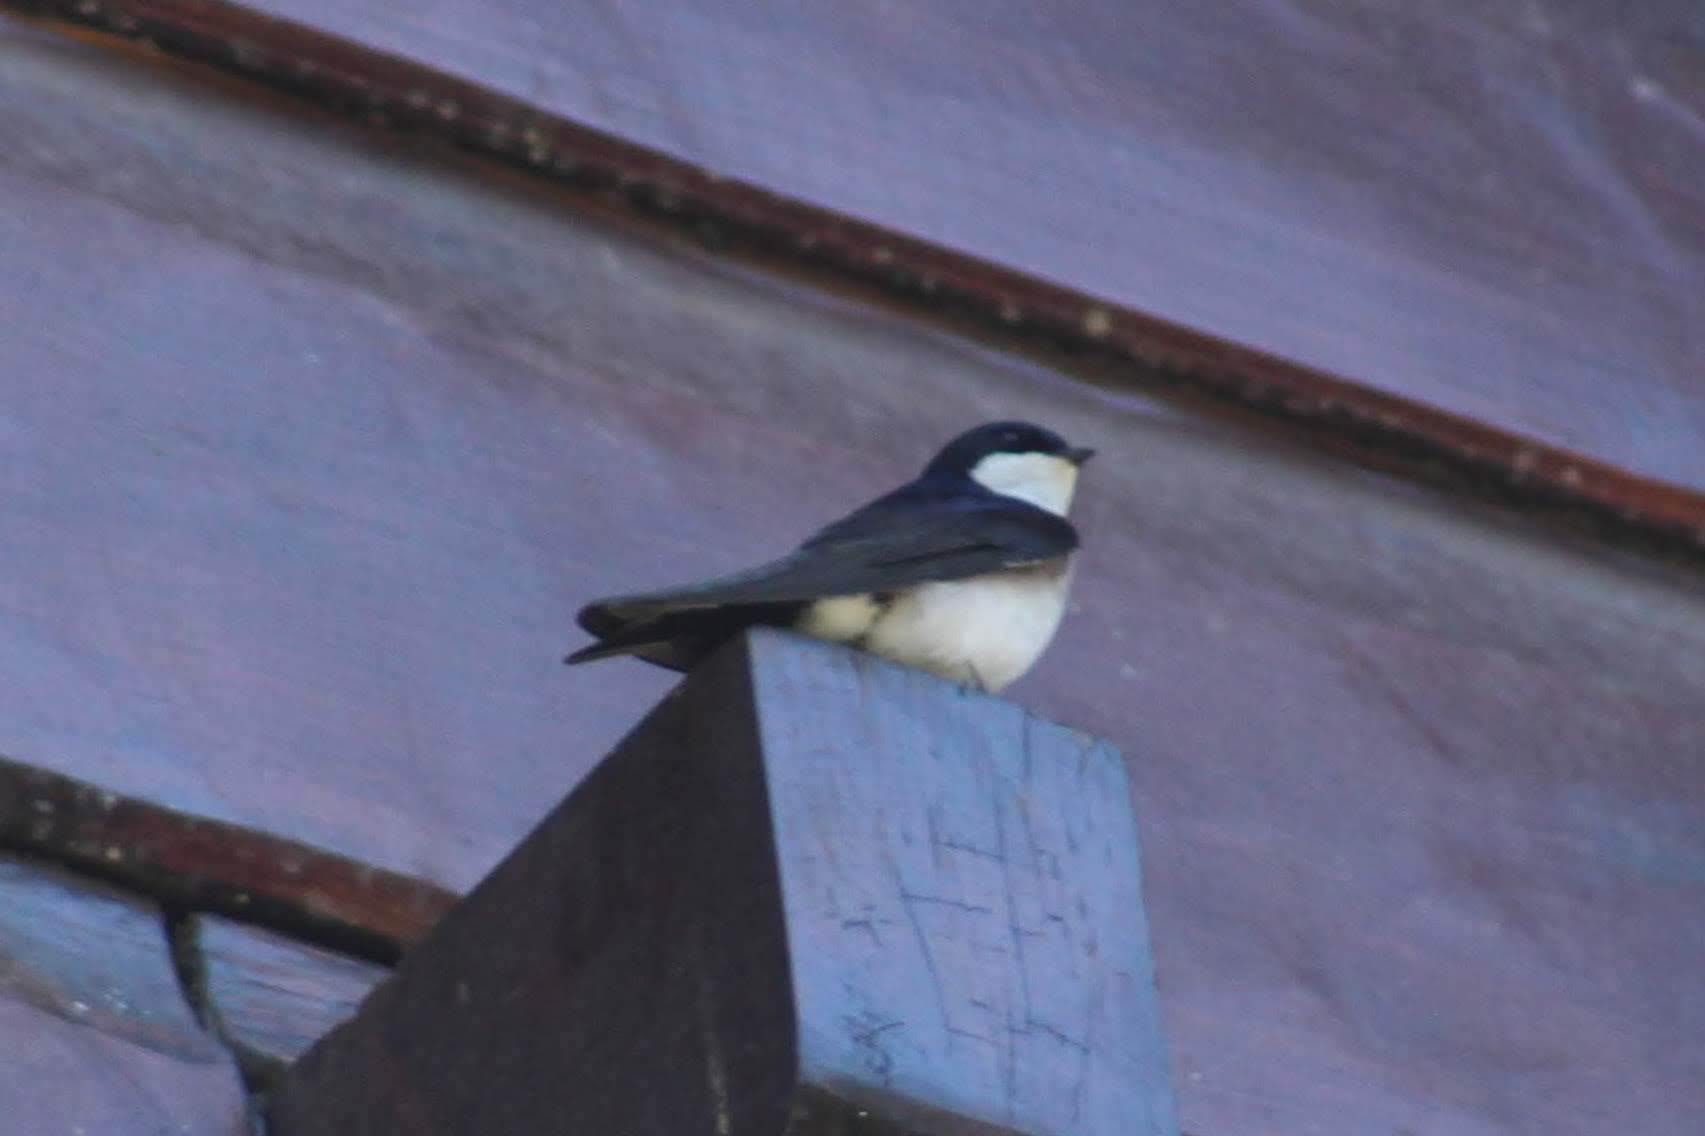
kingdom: Animalia
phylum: Chordata
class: Aves
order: Passeriformes
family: Hirundinidae
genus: Notiochelidon
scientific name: Notiochelidon cyanoleuca
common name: Blue-and-white swallow
